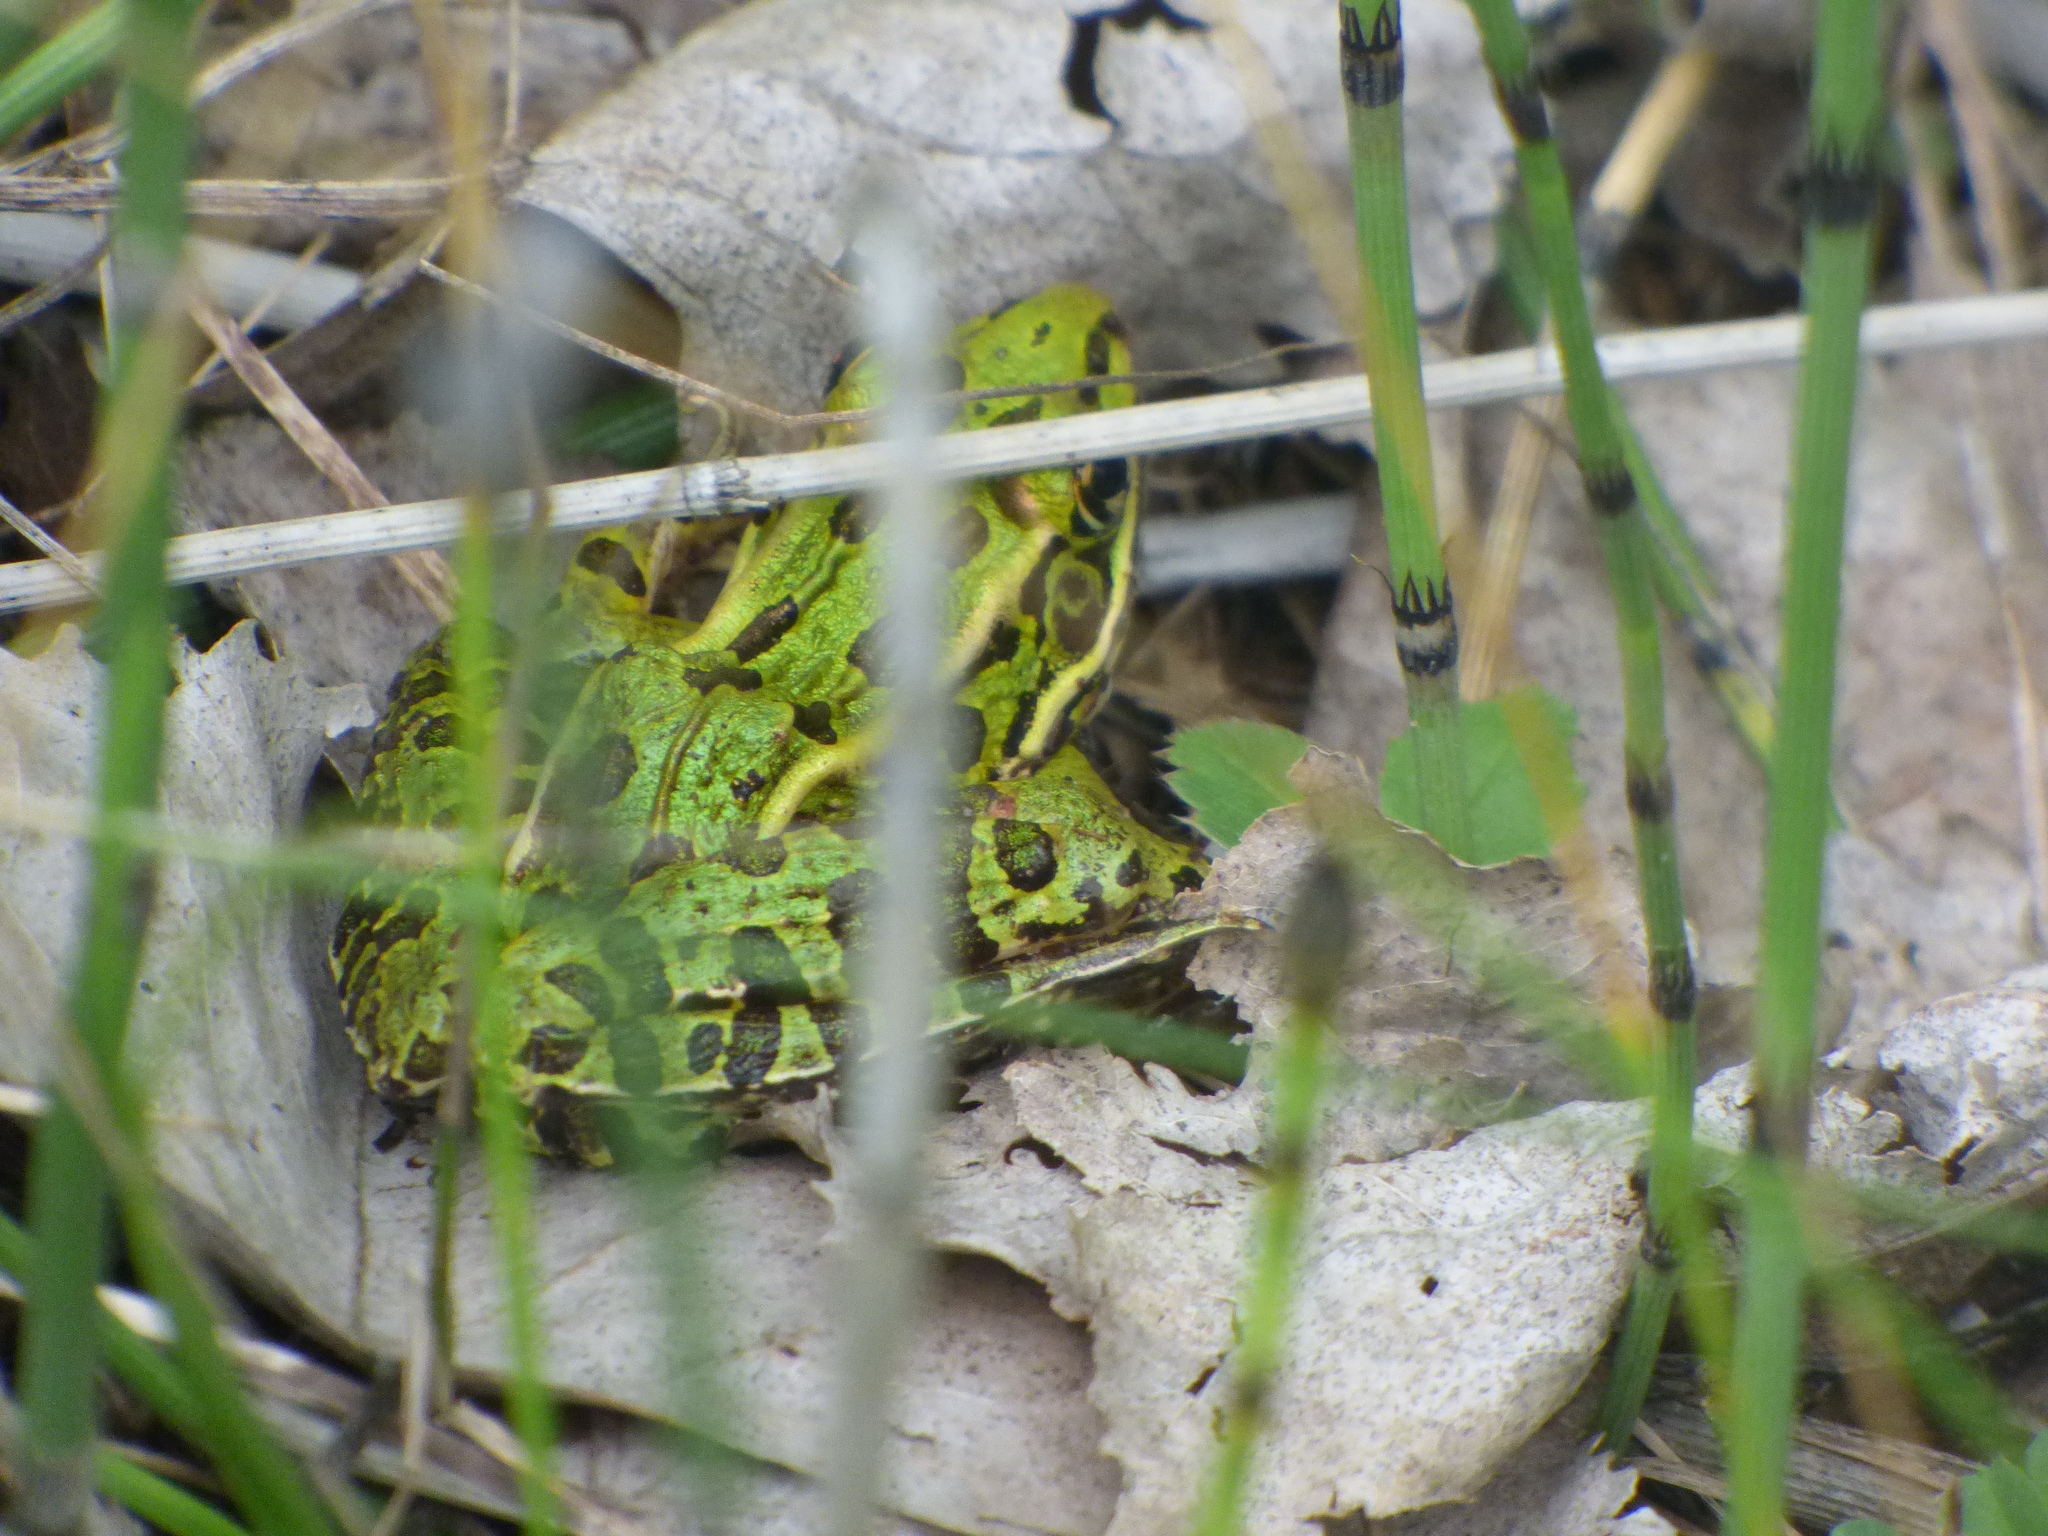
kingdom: Animalia
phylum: Chordata
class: Amphibia
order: Anura
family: Ranidae
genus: Lithobates
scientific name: Lithobates pipiens
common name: Northern leopard frog
